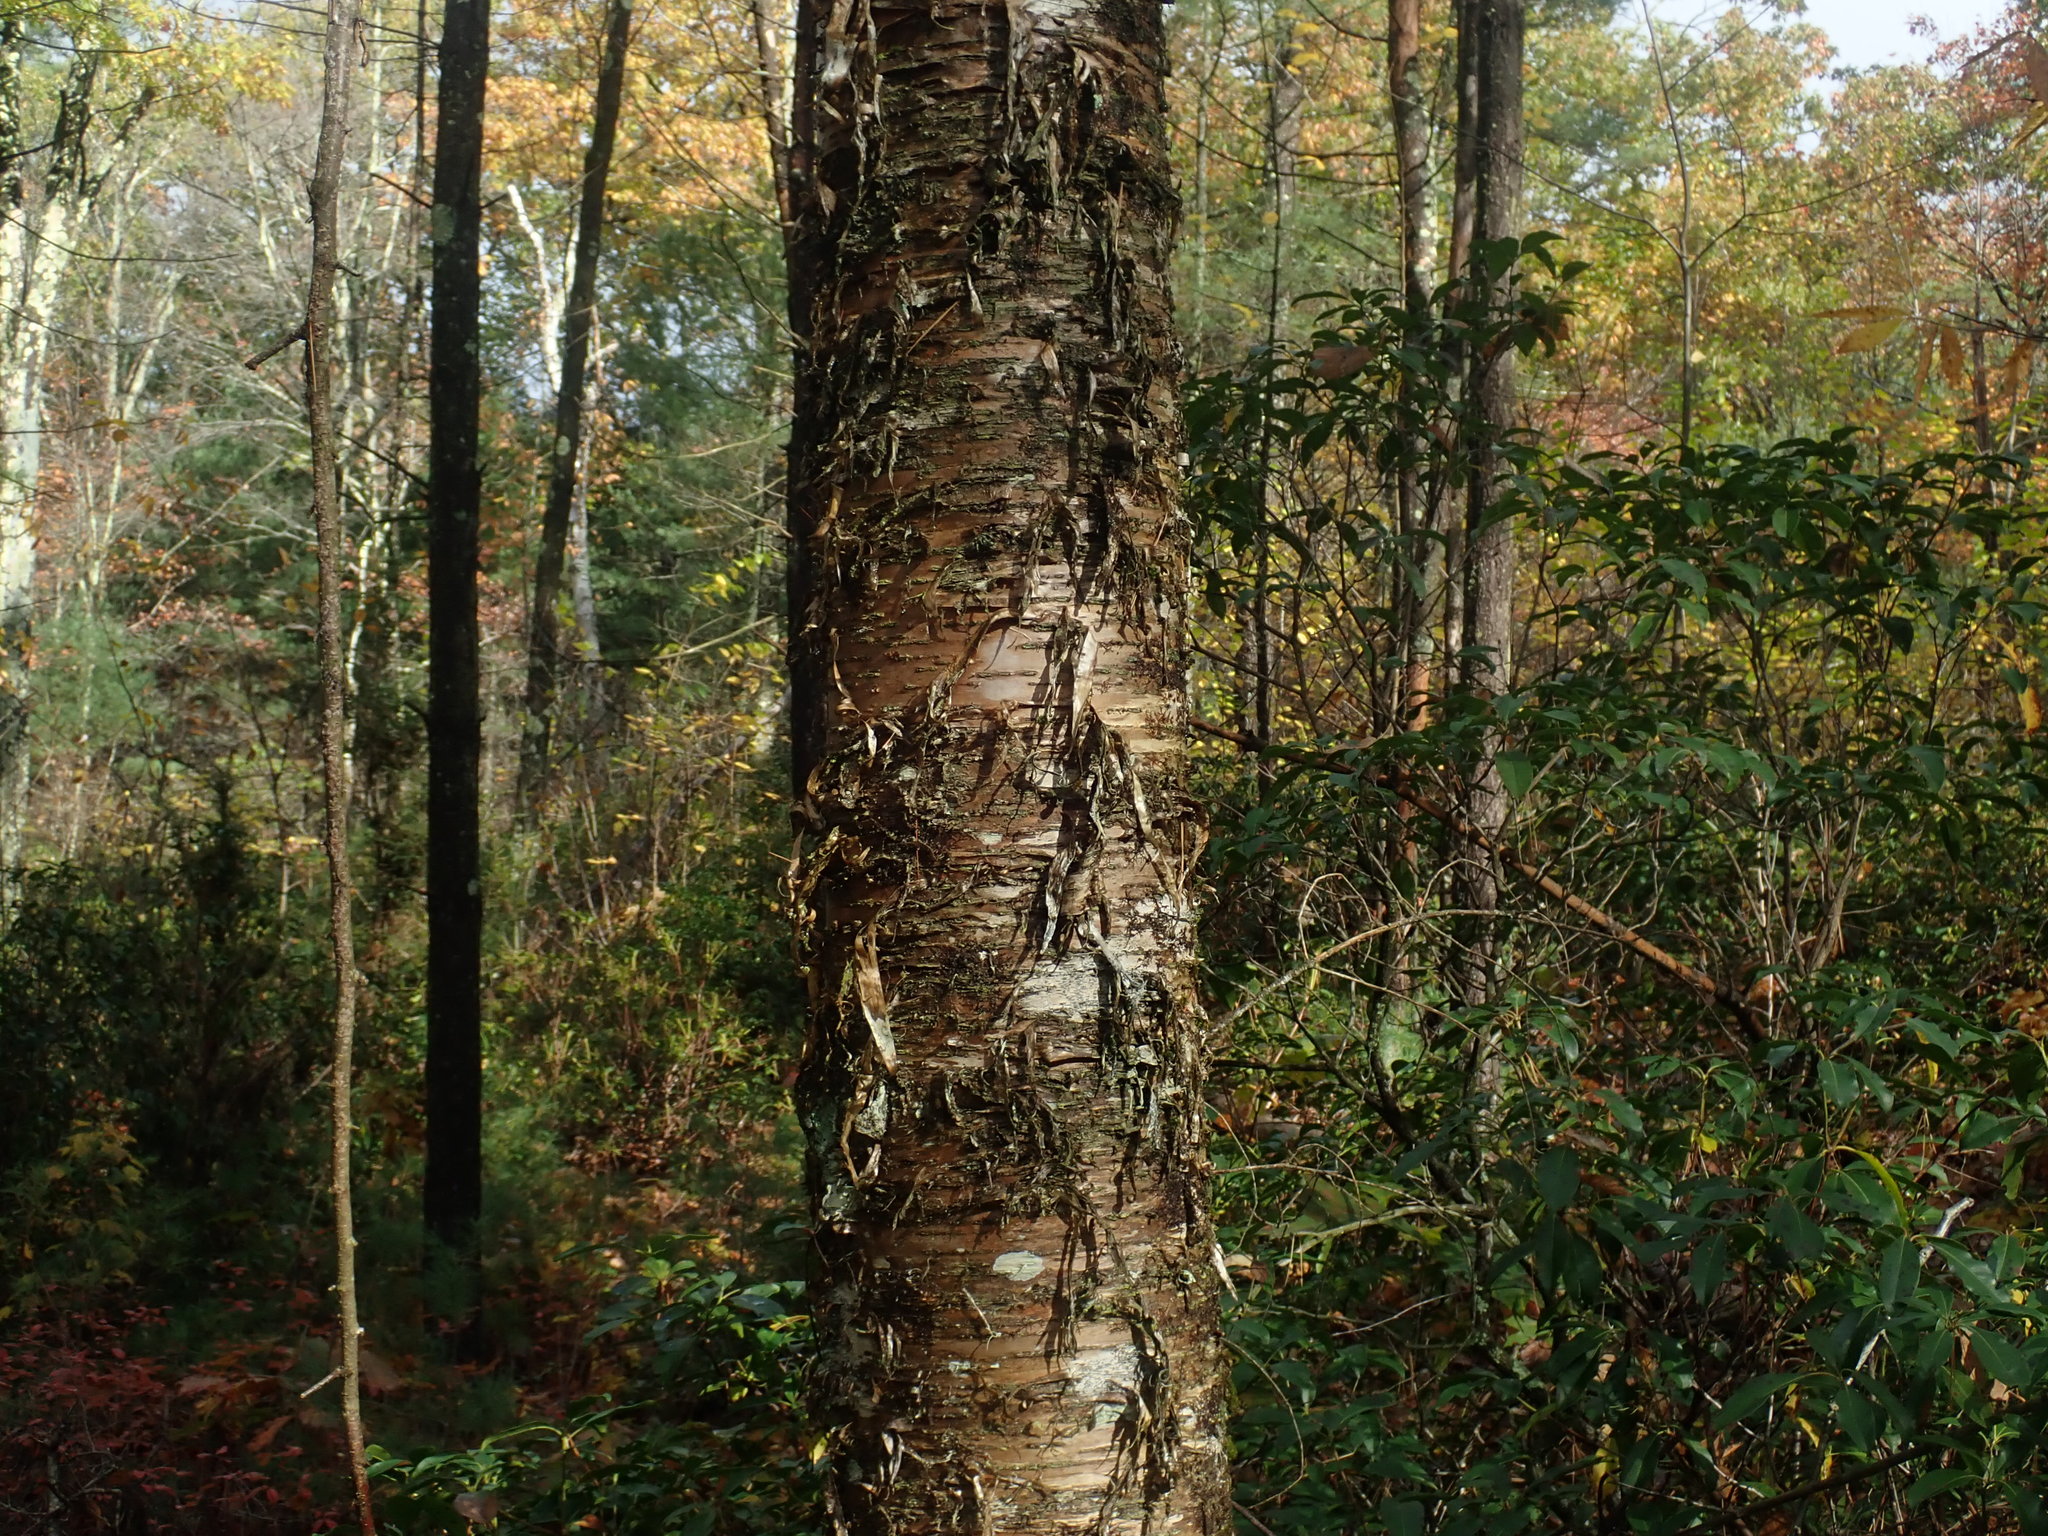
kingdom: Plantae
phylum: Tracheophyta
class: Magnoliopsida
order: Fagales
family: Betulaceae
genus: Betula
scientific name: Betula alleghaniensis
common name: Yellow birch
